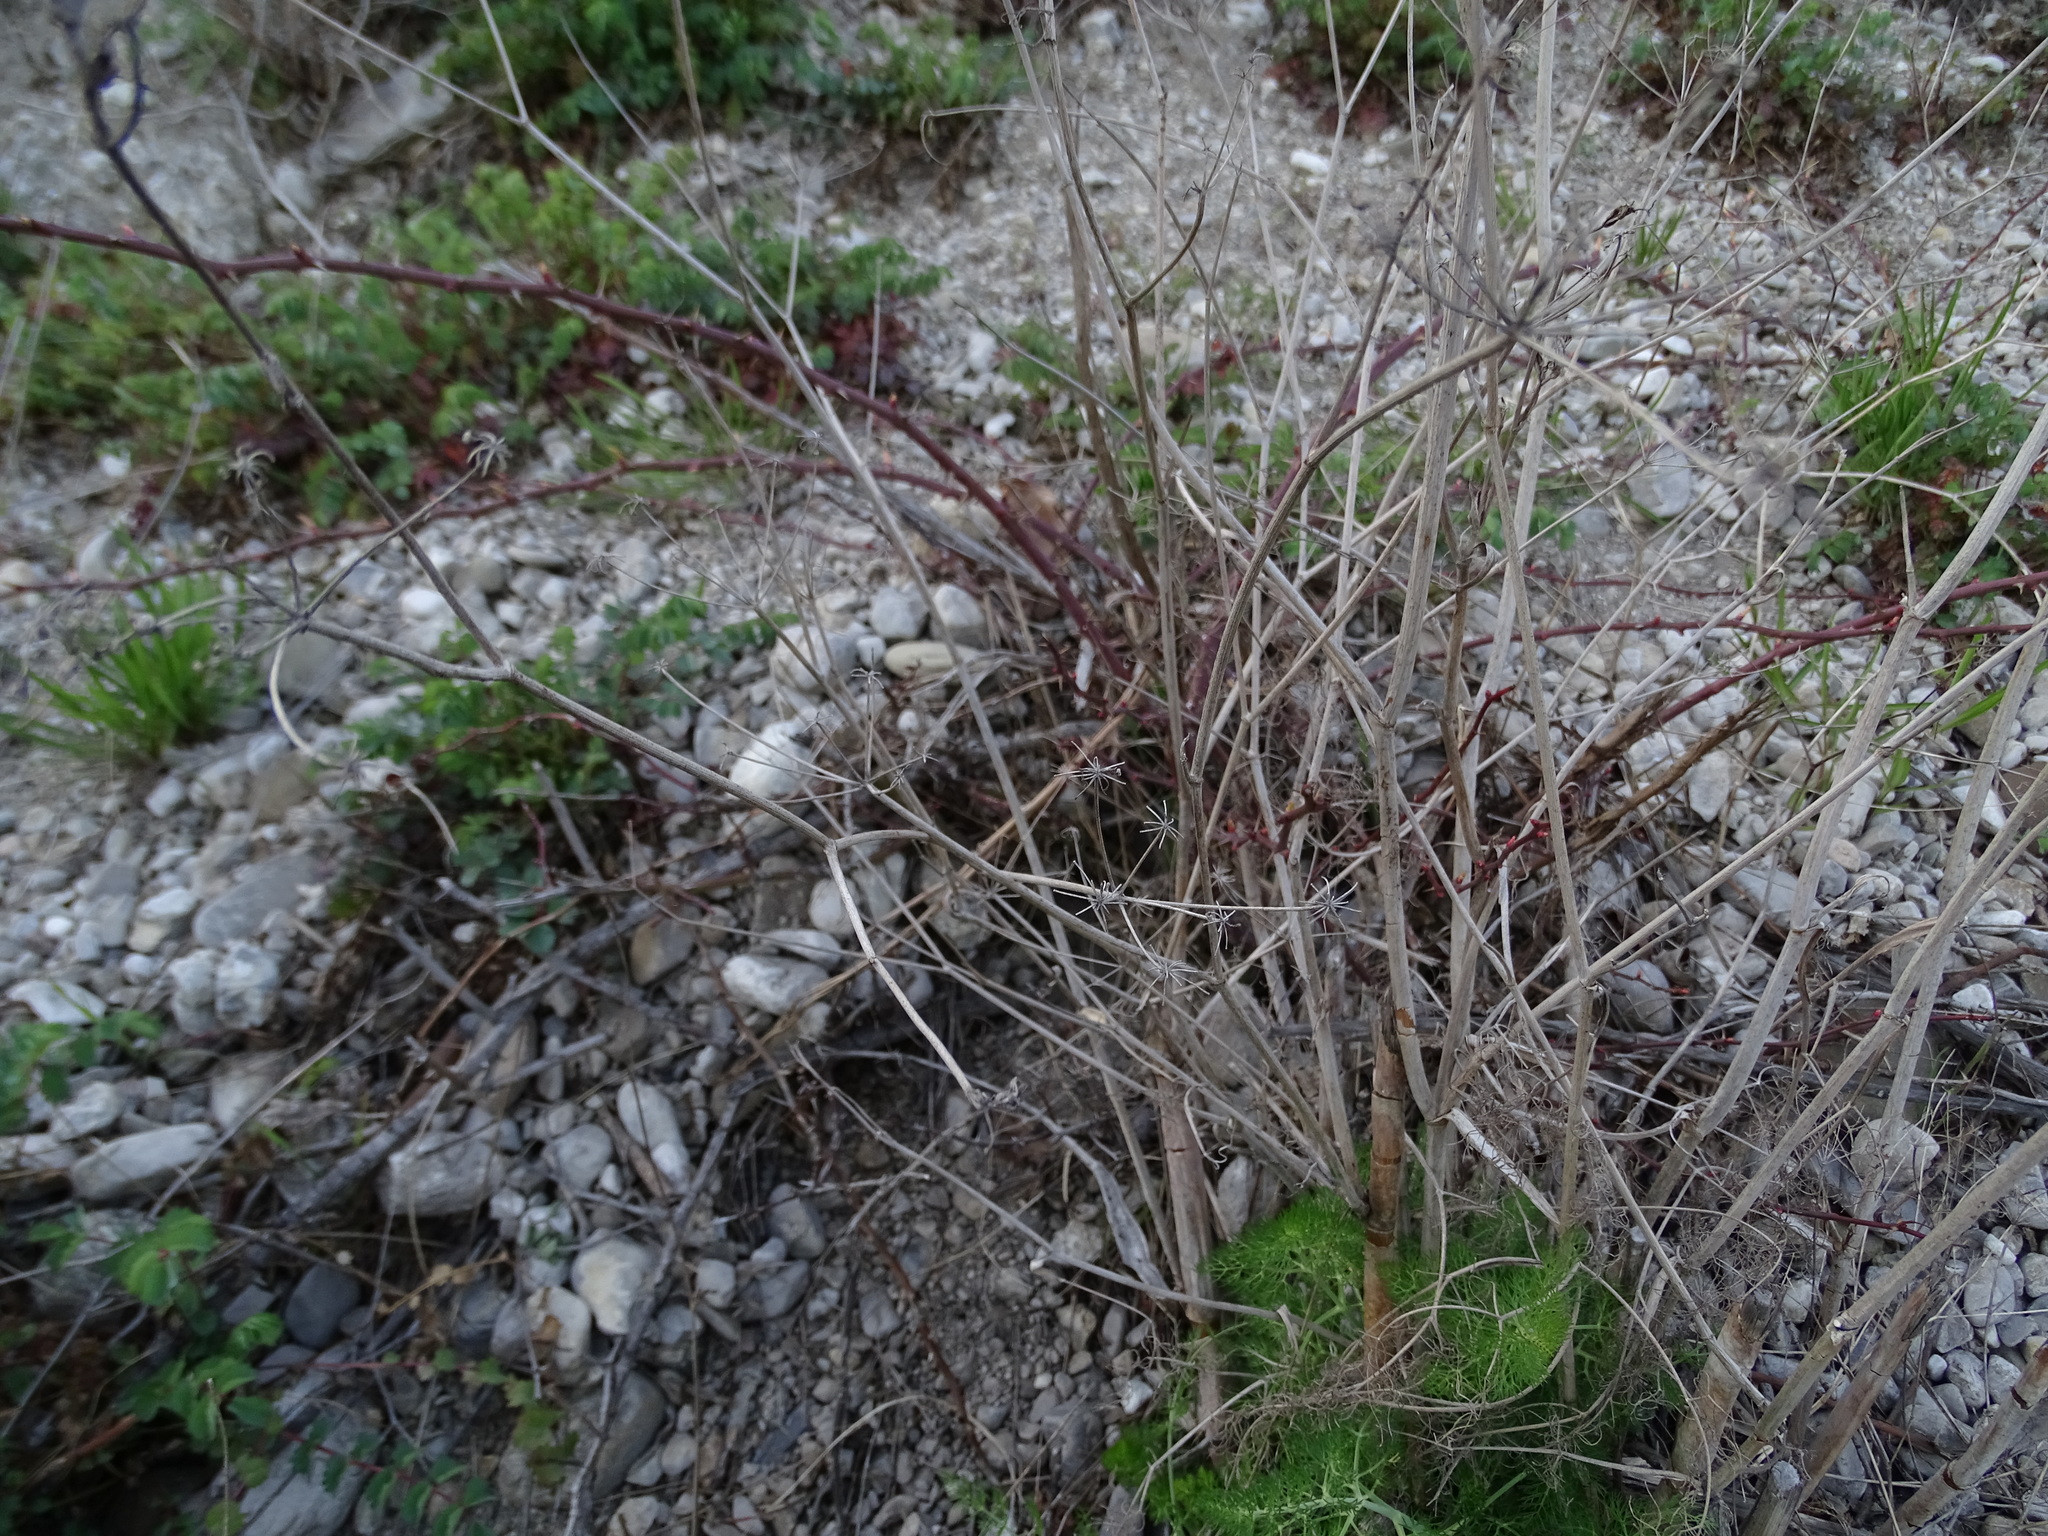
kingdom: Plantae
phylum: Tracheophyta
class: Magnoliopsida
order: Apiales
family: Apiaceae
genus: Foeniculum
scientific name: Foeniculum vulgare
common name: Fennel
